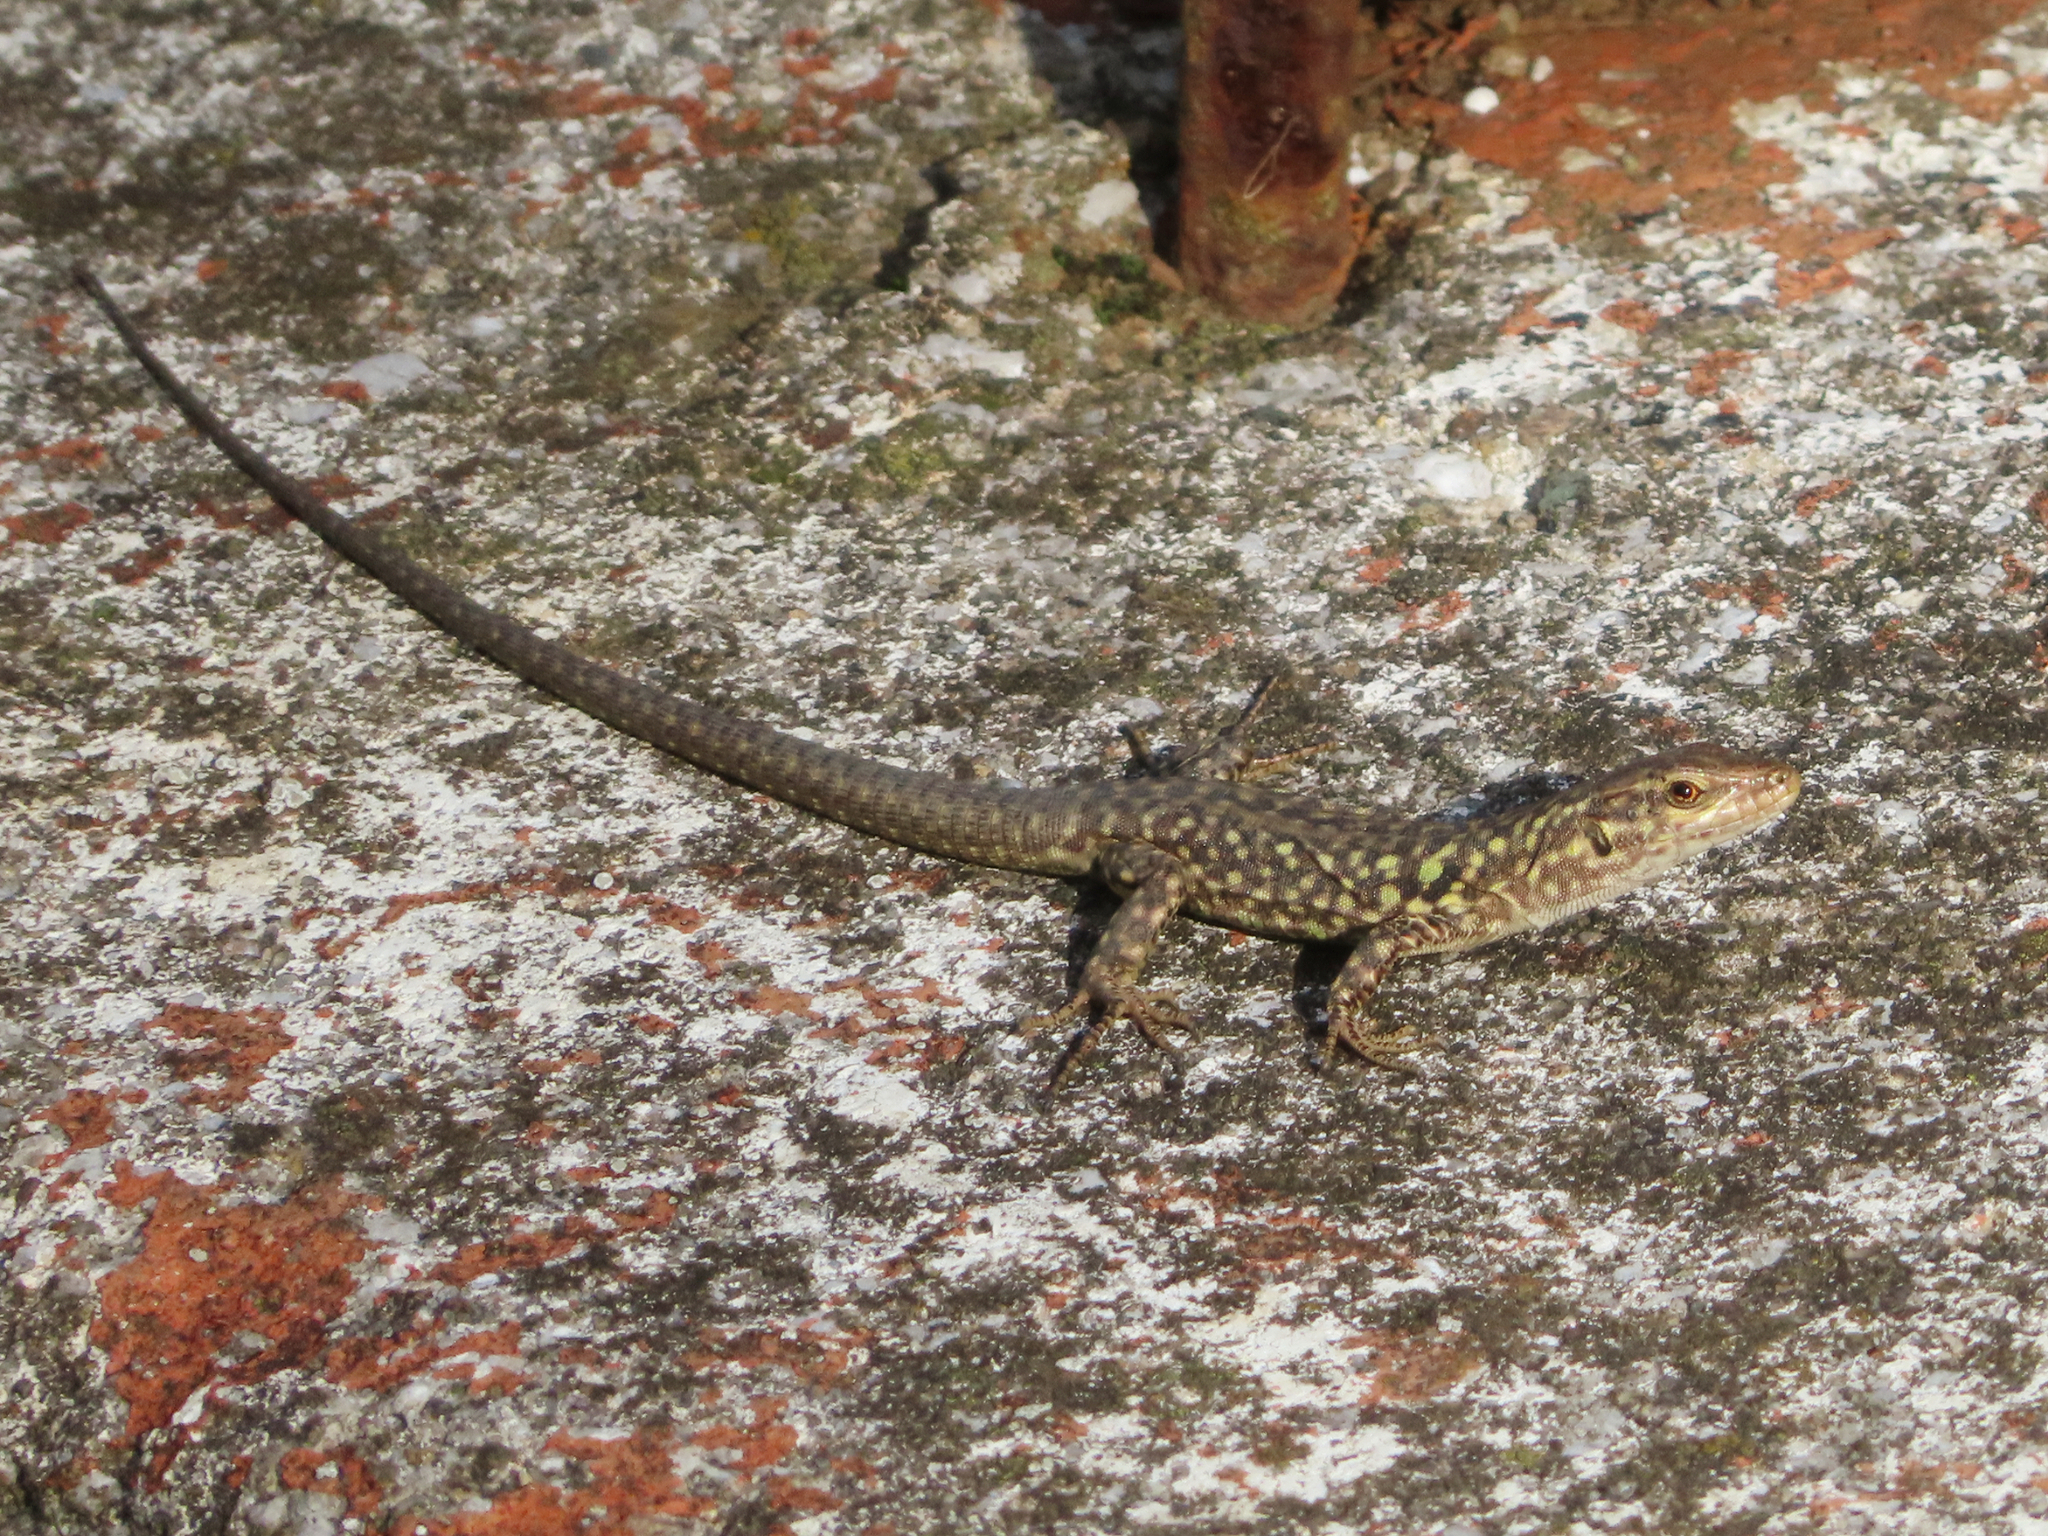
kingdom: Animalia
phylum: Chordata
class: Squamata
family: Lacertidae
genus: Podarcis
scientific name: Podarcis siculus
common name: Italian wall lizard
